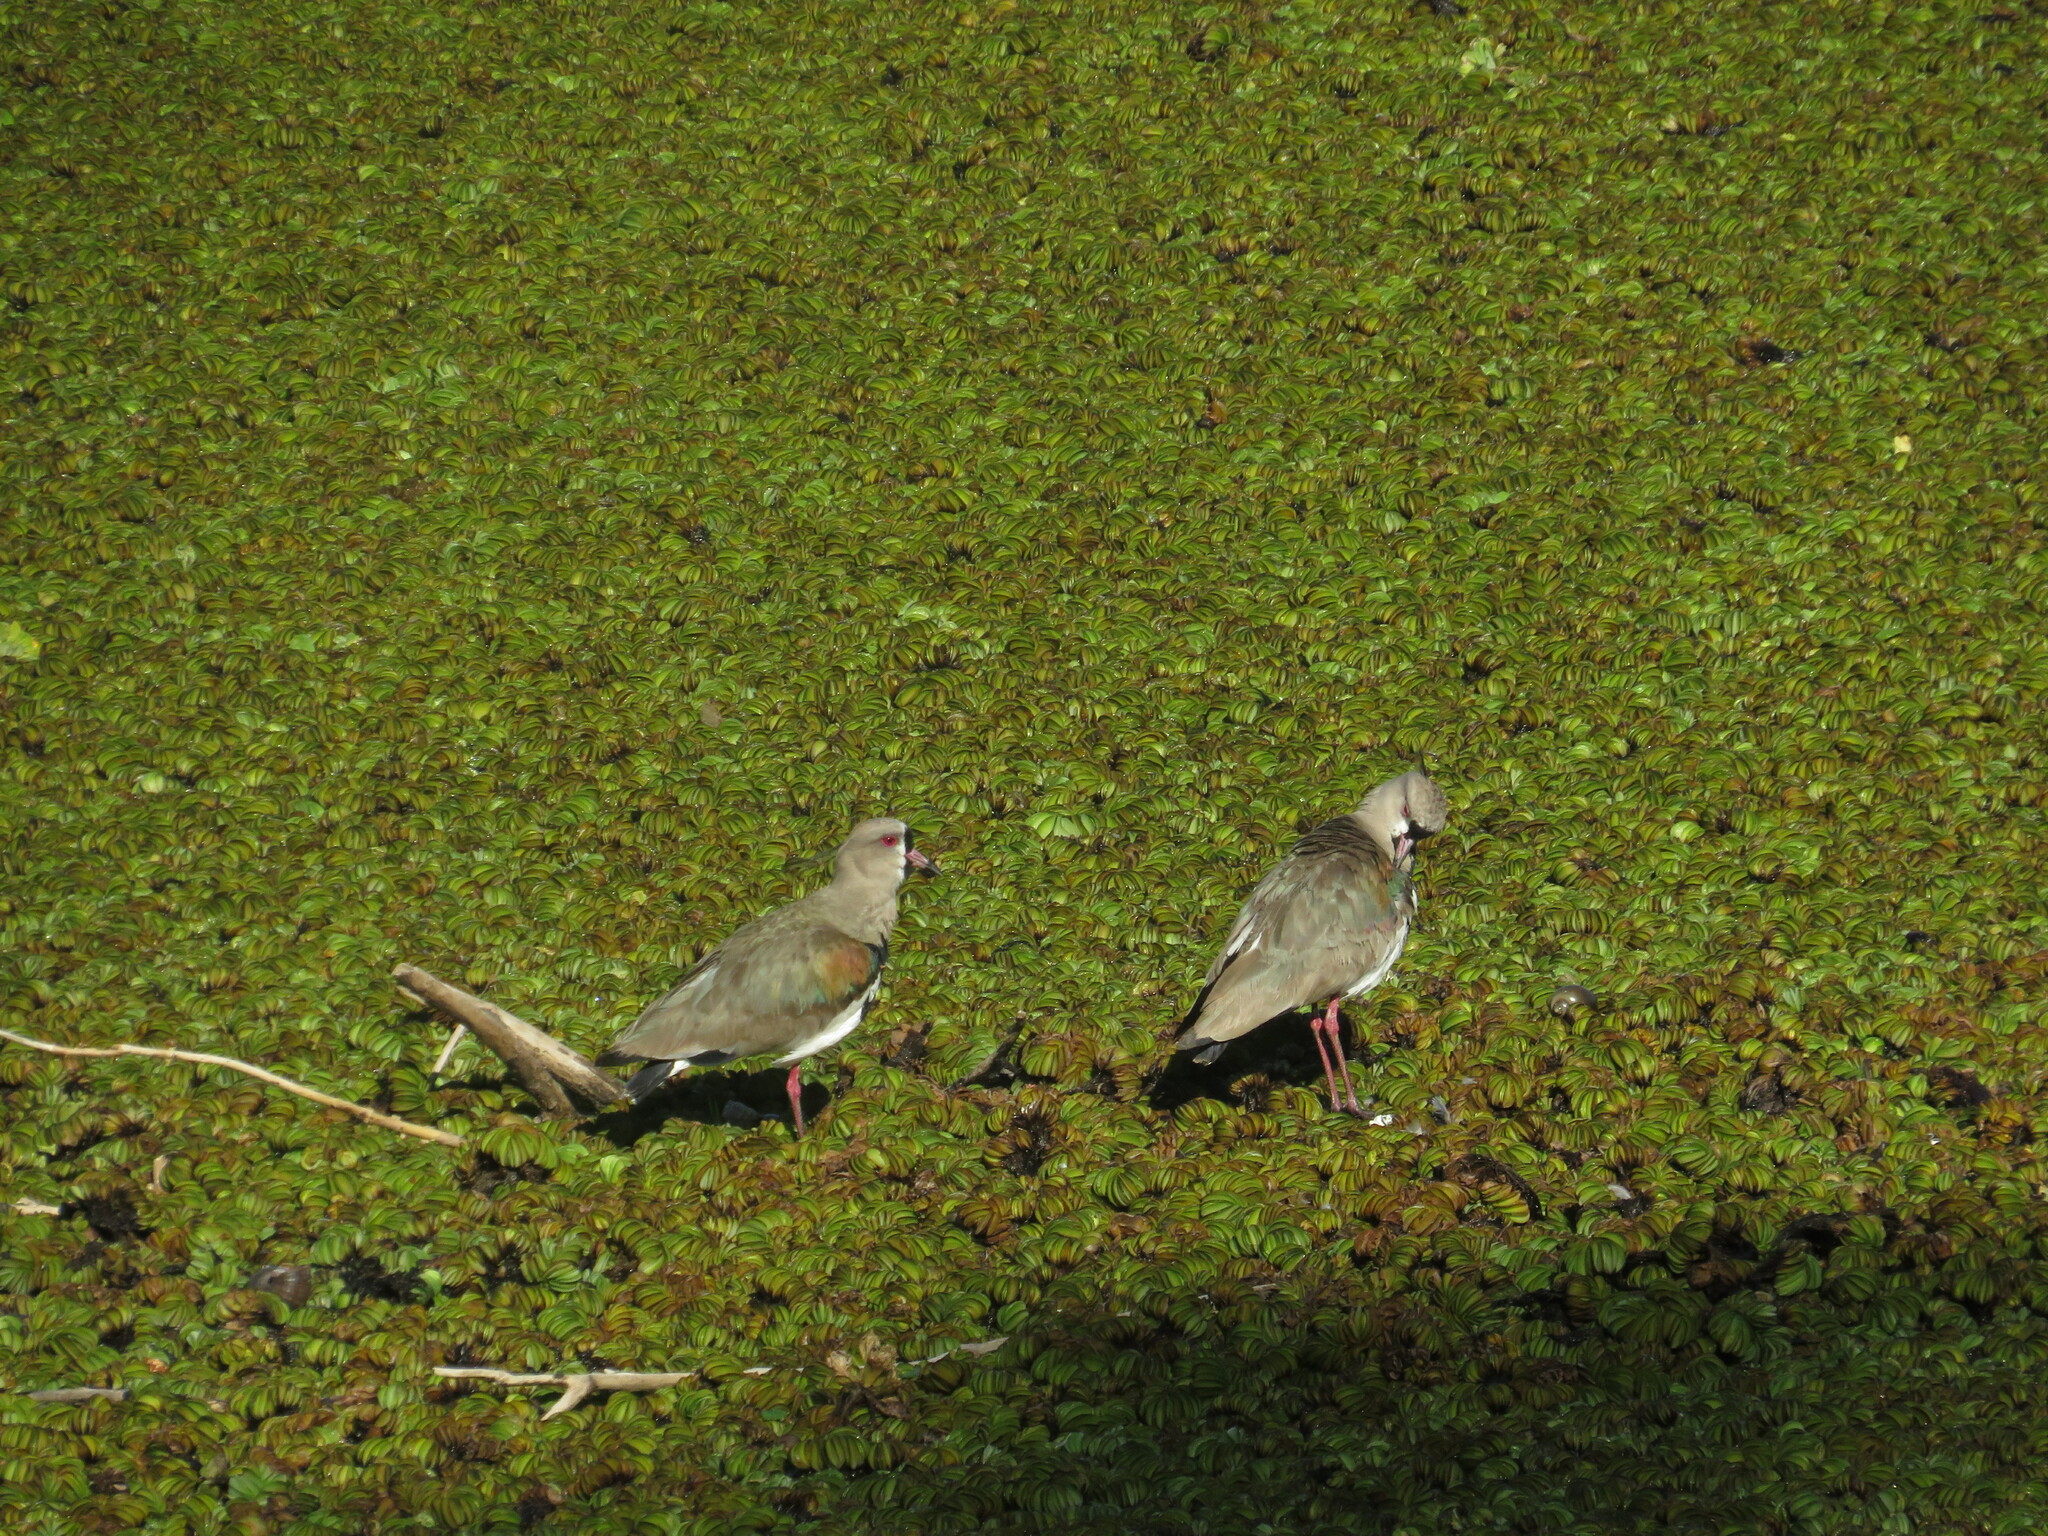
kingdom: Animalia
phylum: Chordata
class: Aves
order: Charadriiformes
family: Charadriidae
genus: Vanellus
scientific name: Vanellus chilensis
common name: Southern lapwing
